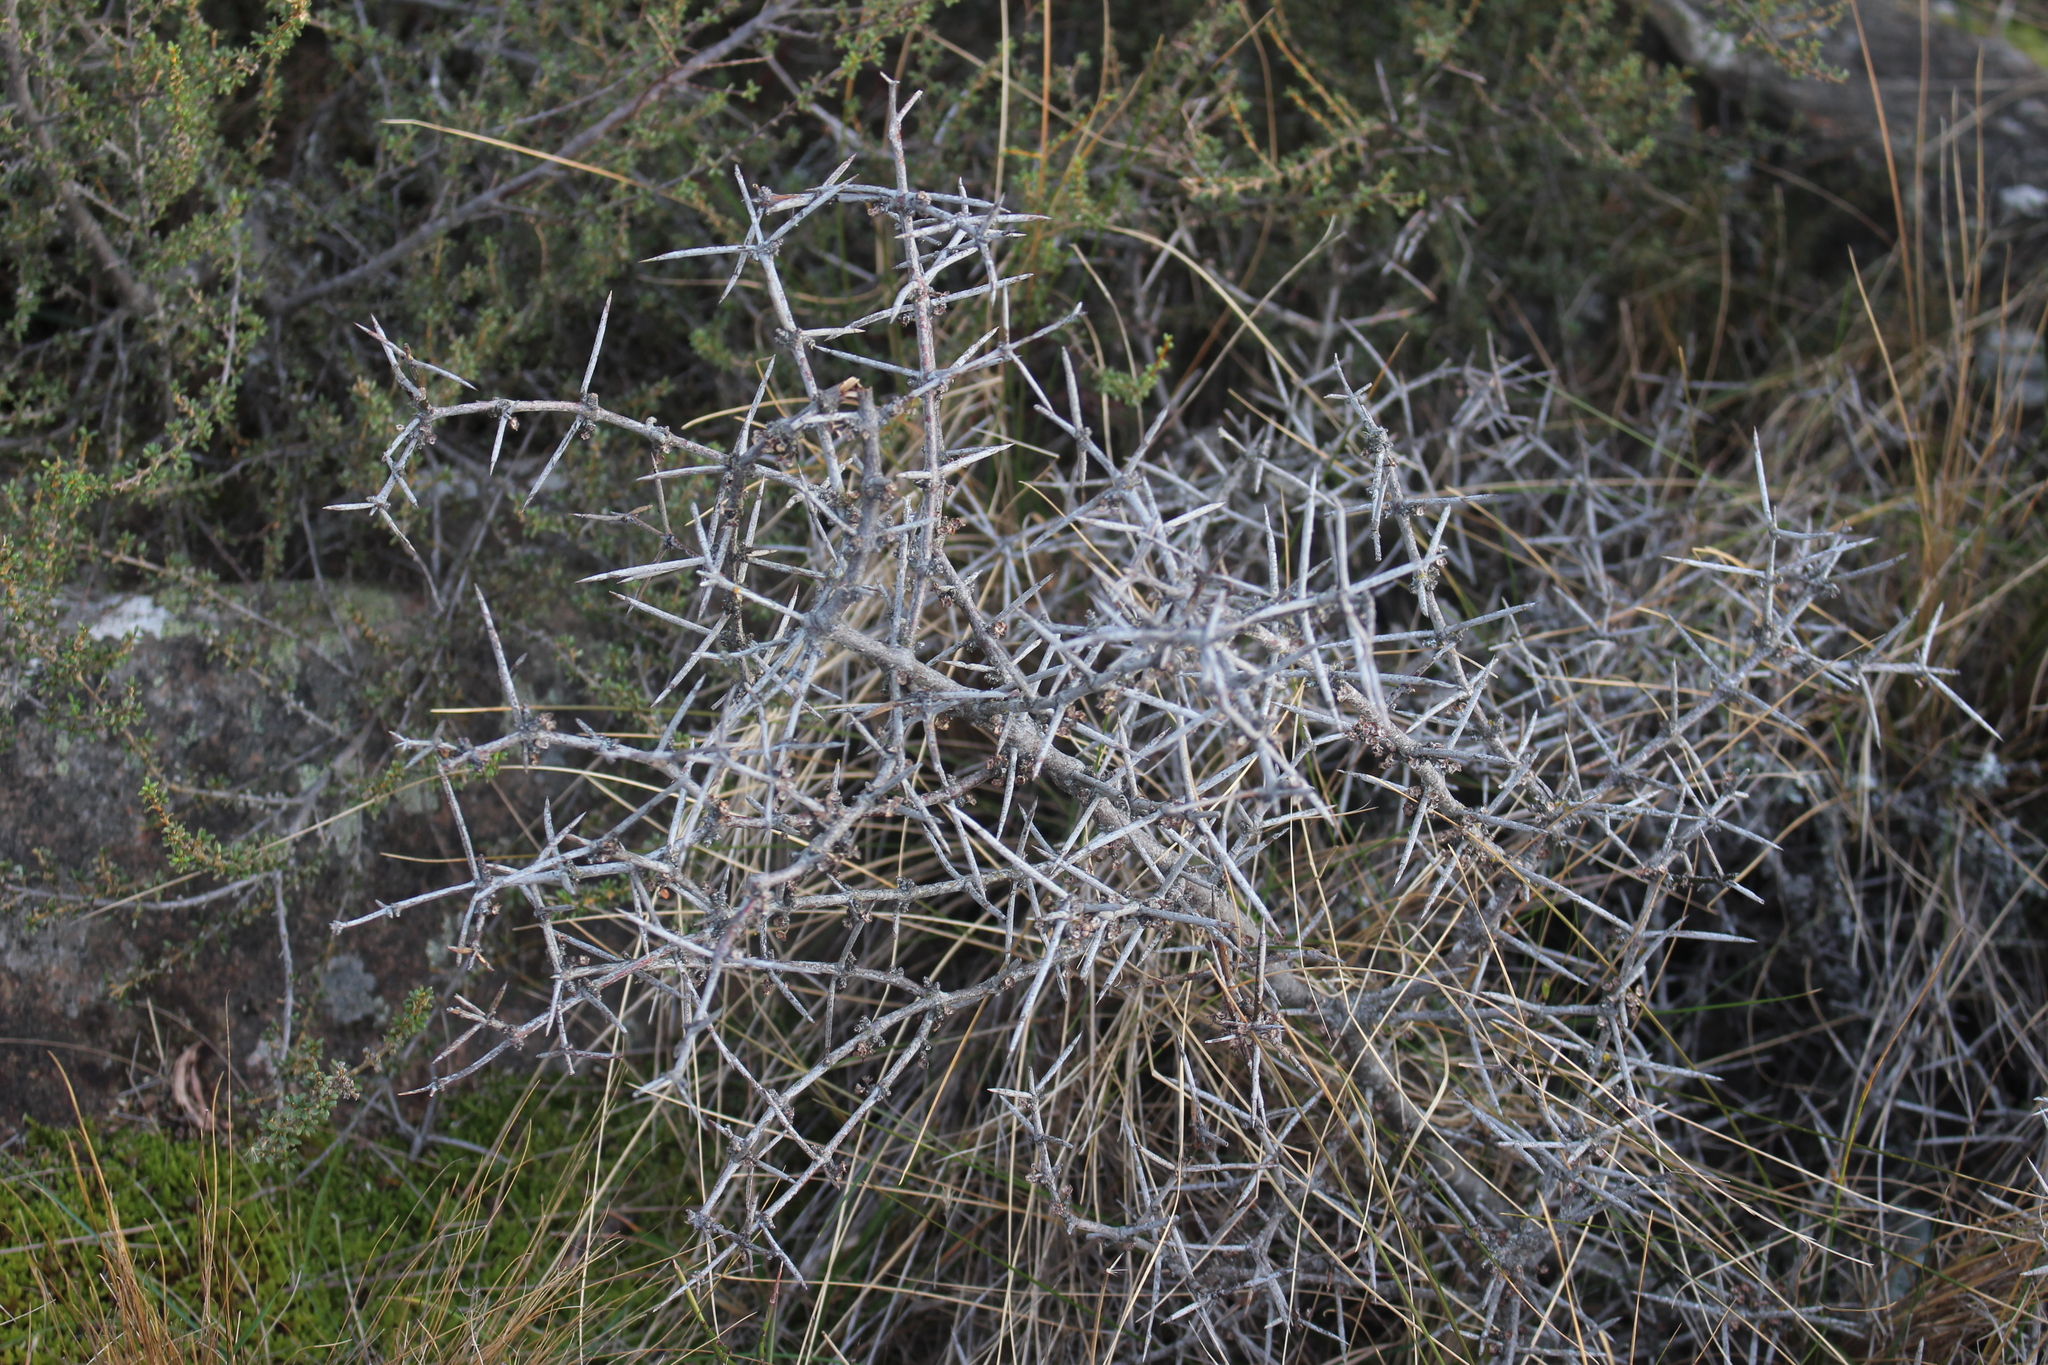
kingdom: Plantae
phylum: Tracheophyta
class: Magnoliopsida
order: Rosales
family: Rhamnaceae
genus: Discaria
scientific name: Discaria toumatou
